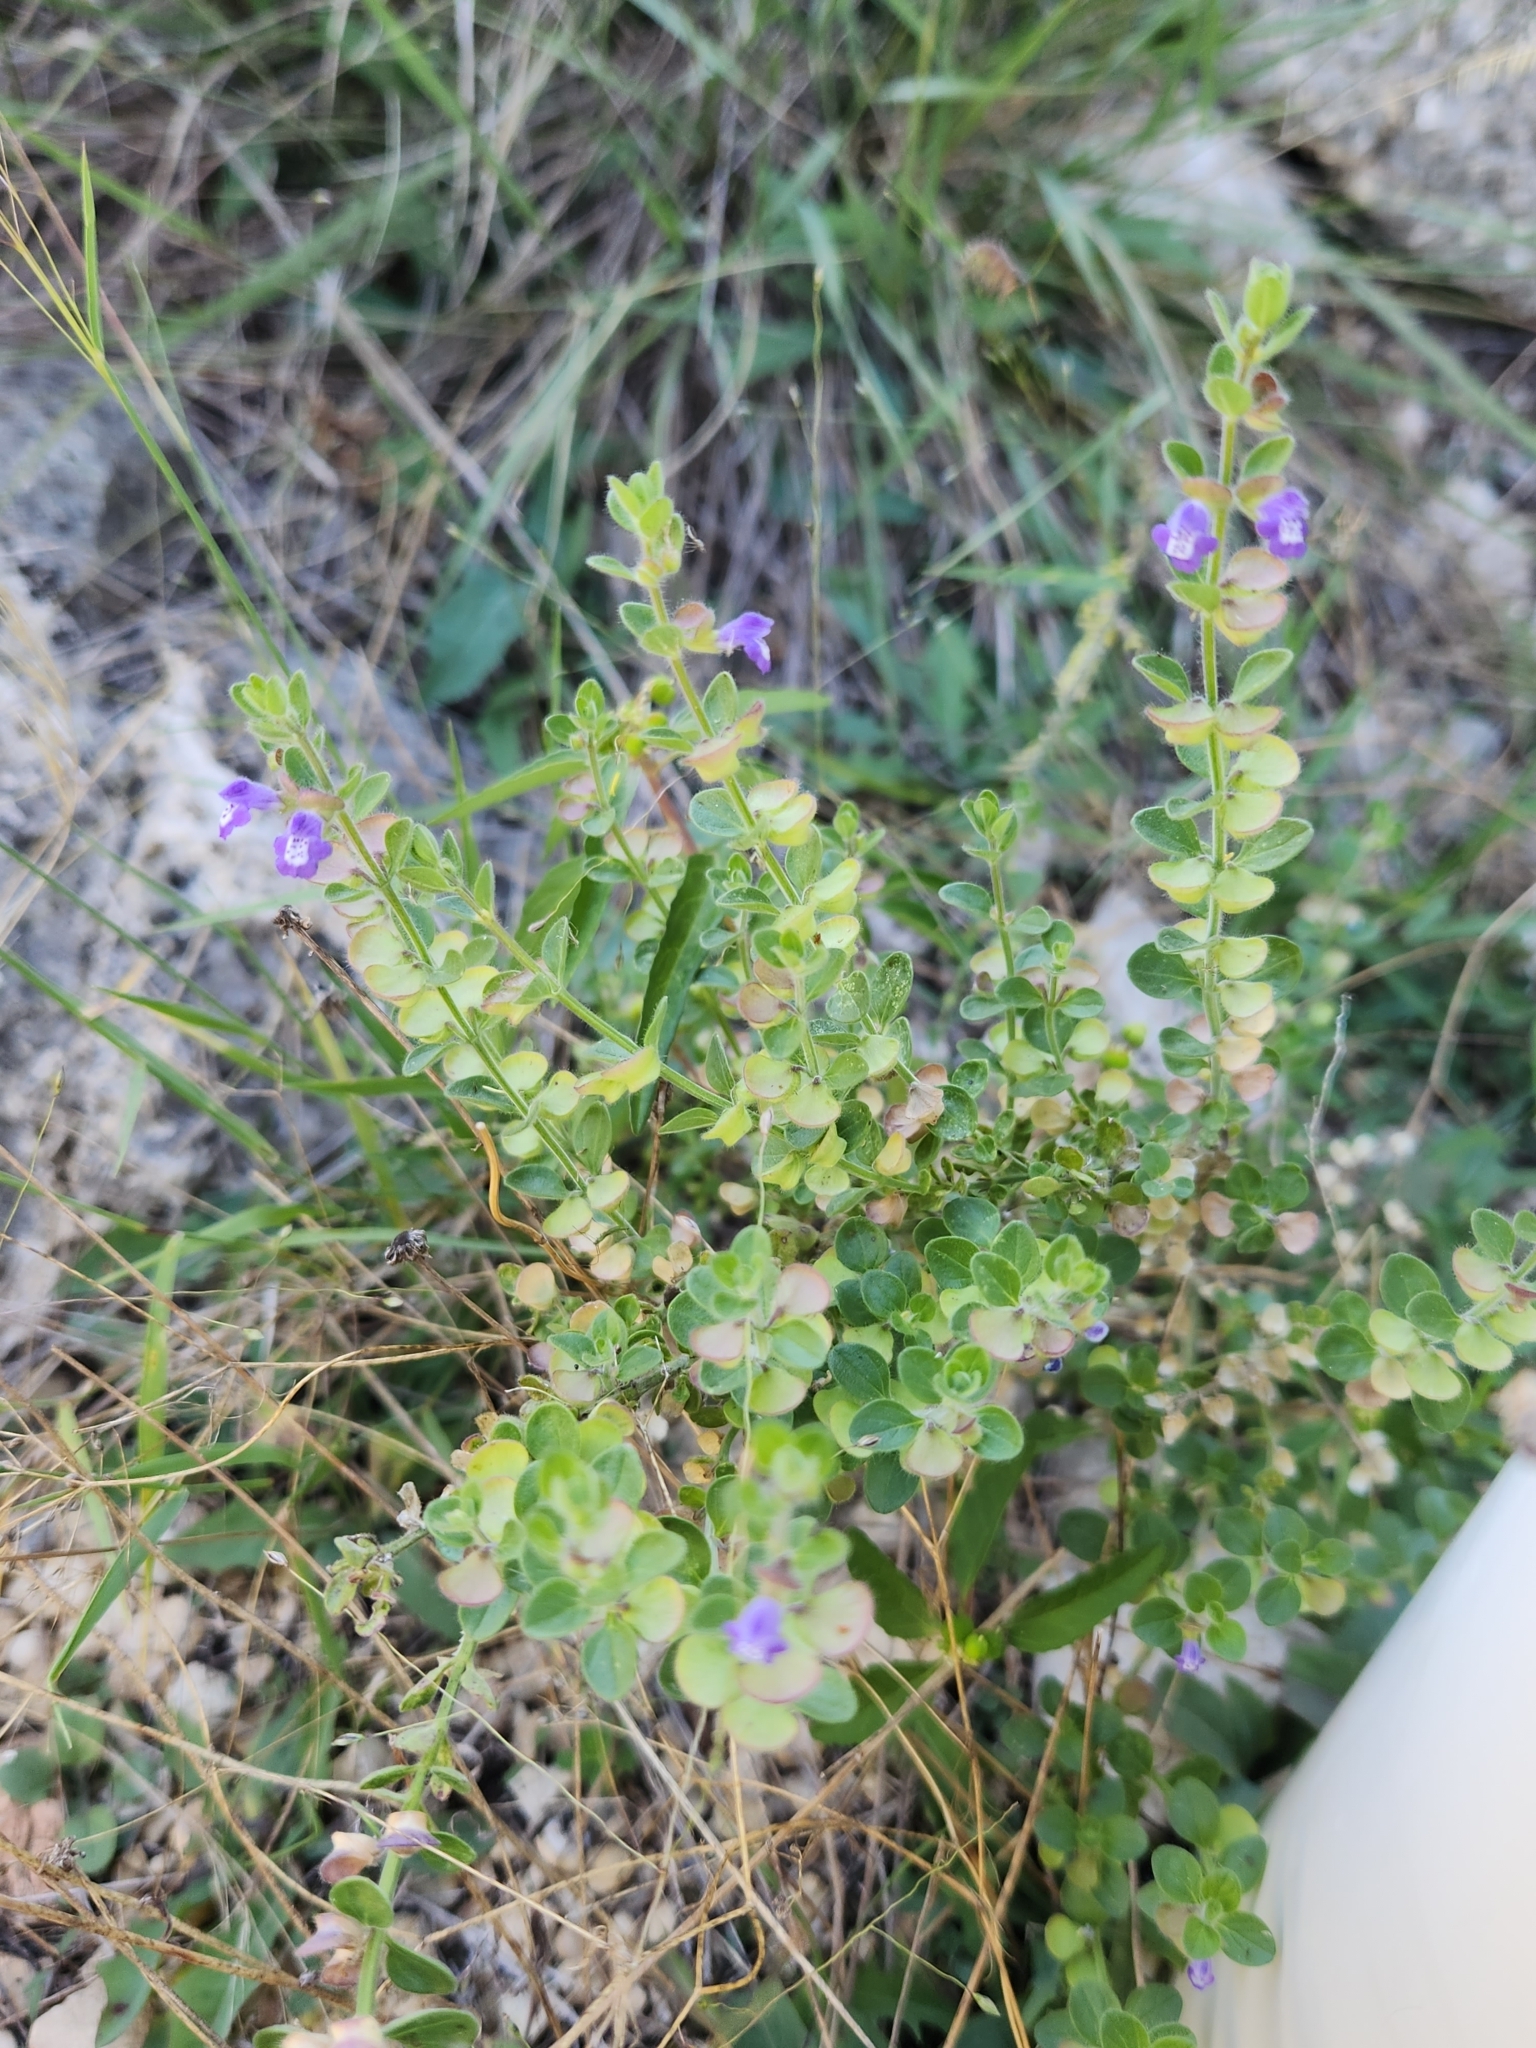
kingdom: Plantae
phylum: Tracheophyta
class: Magnoliopsida
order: Lamiales
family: Lamiaceae
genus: Scutellaria
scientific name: Scutellaria drummondii
